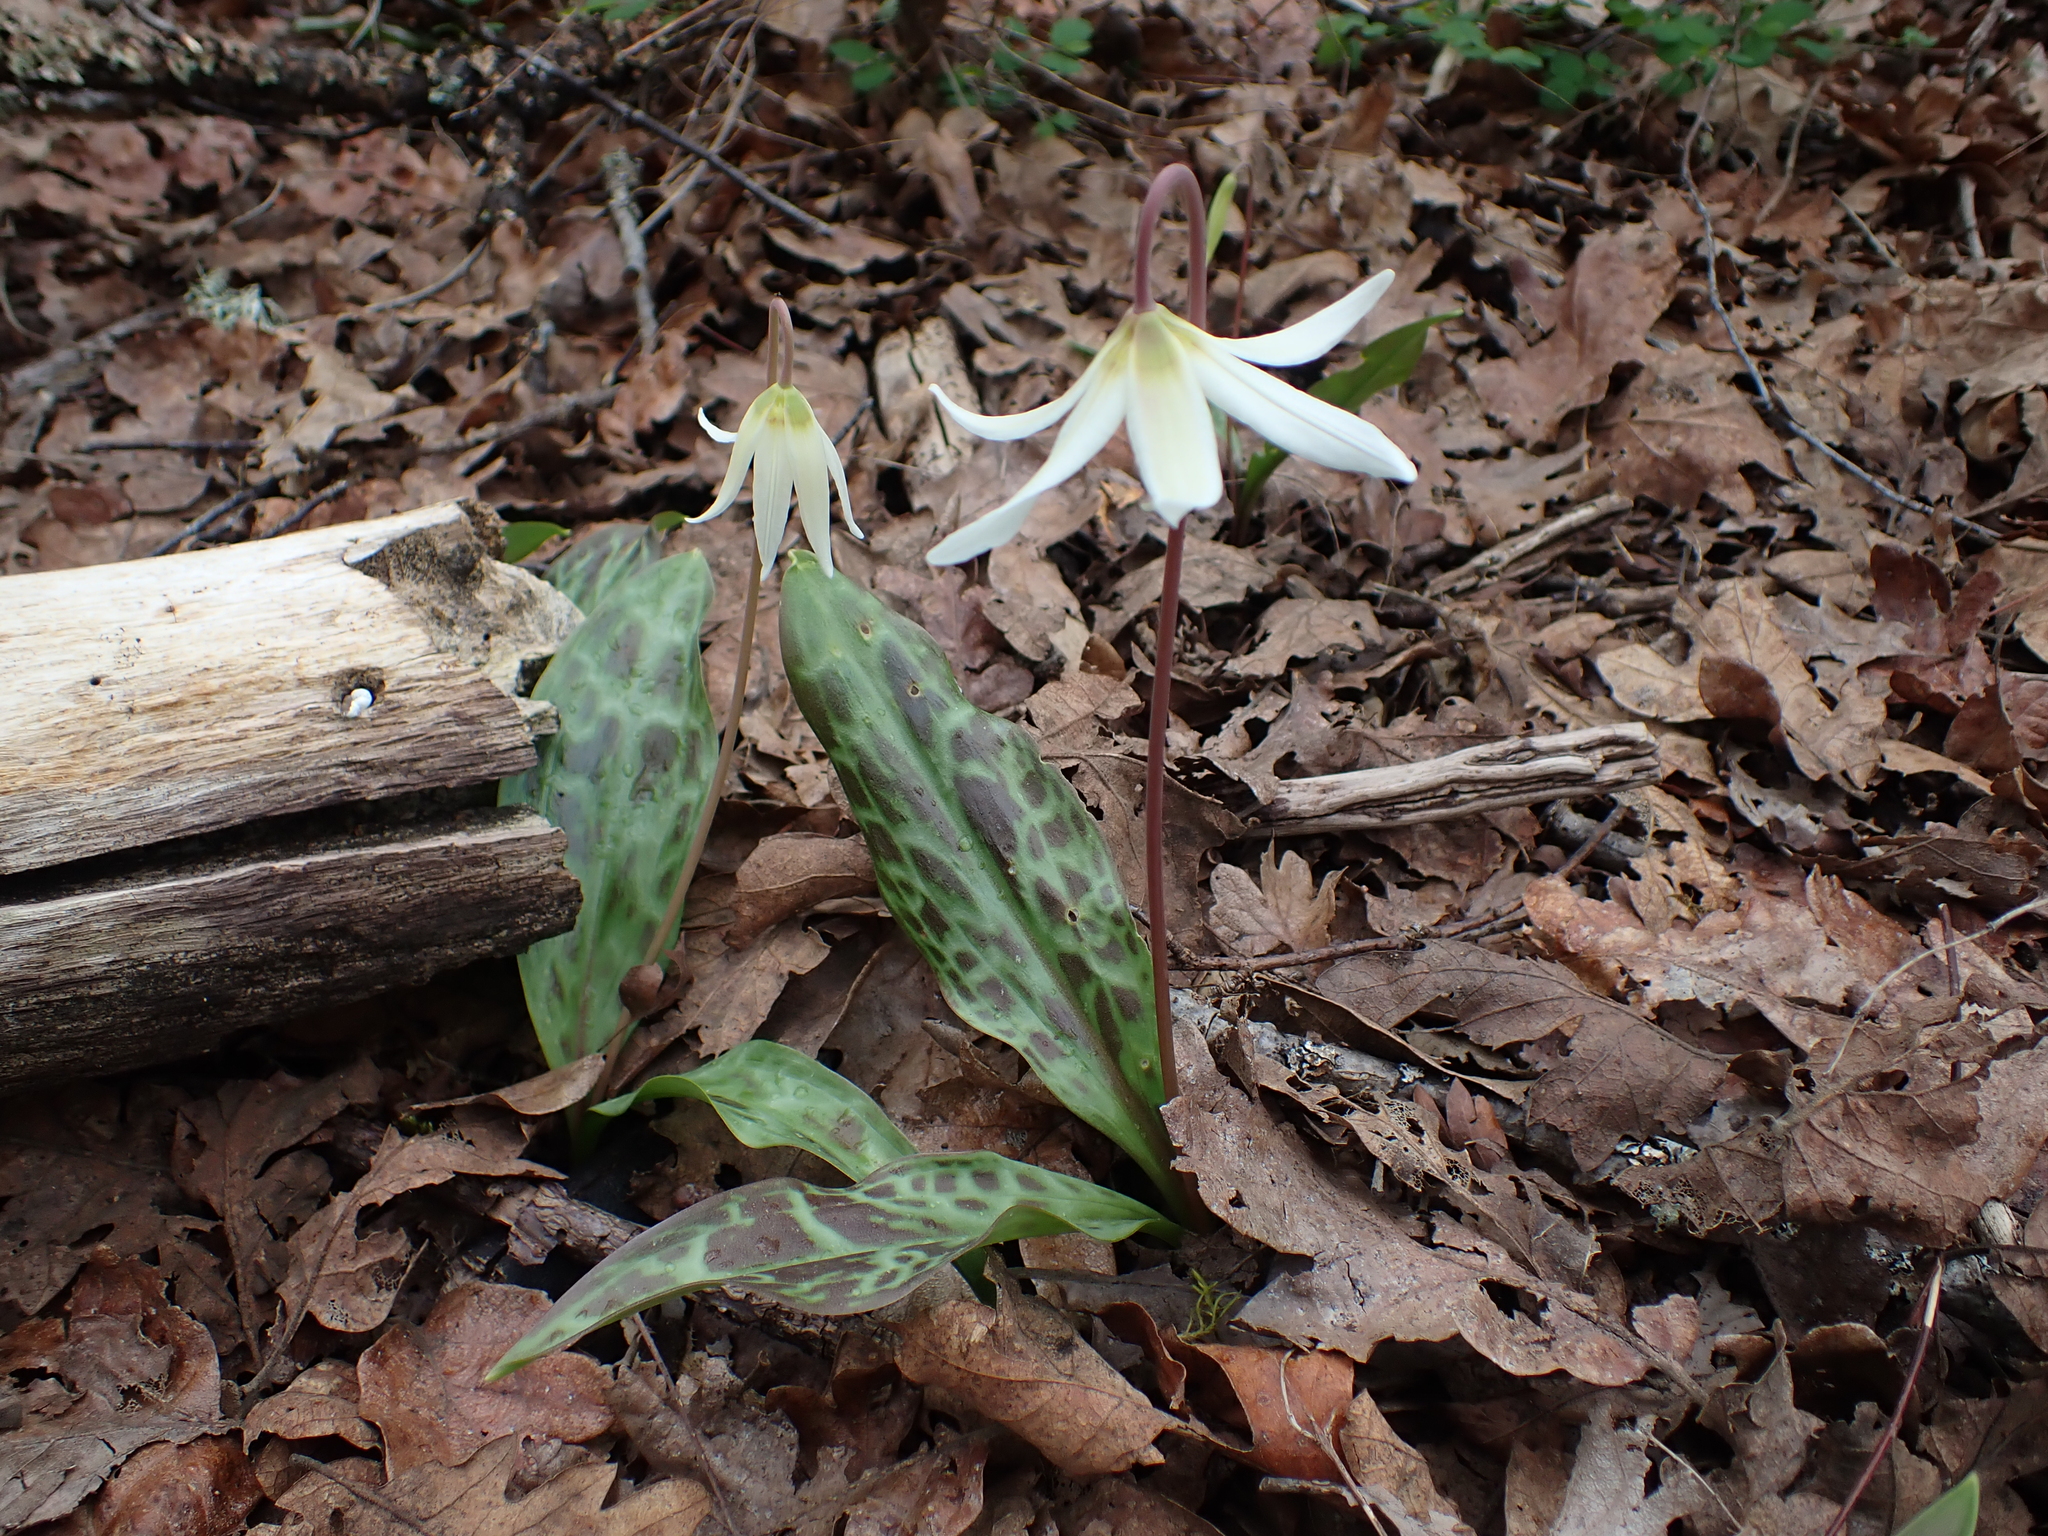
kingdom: Plantae
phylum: Tracheophyta
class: Liliopsida
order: Liliales
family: Liliaceae
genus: Erythronium
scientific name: Erythronium oregonum
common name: Giant adder's-tongue
